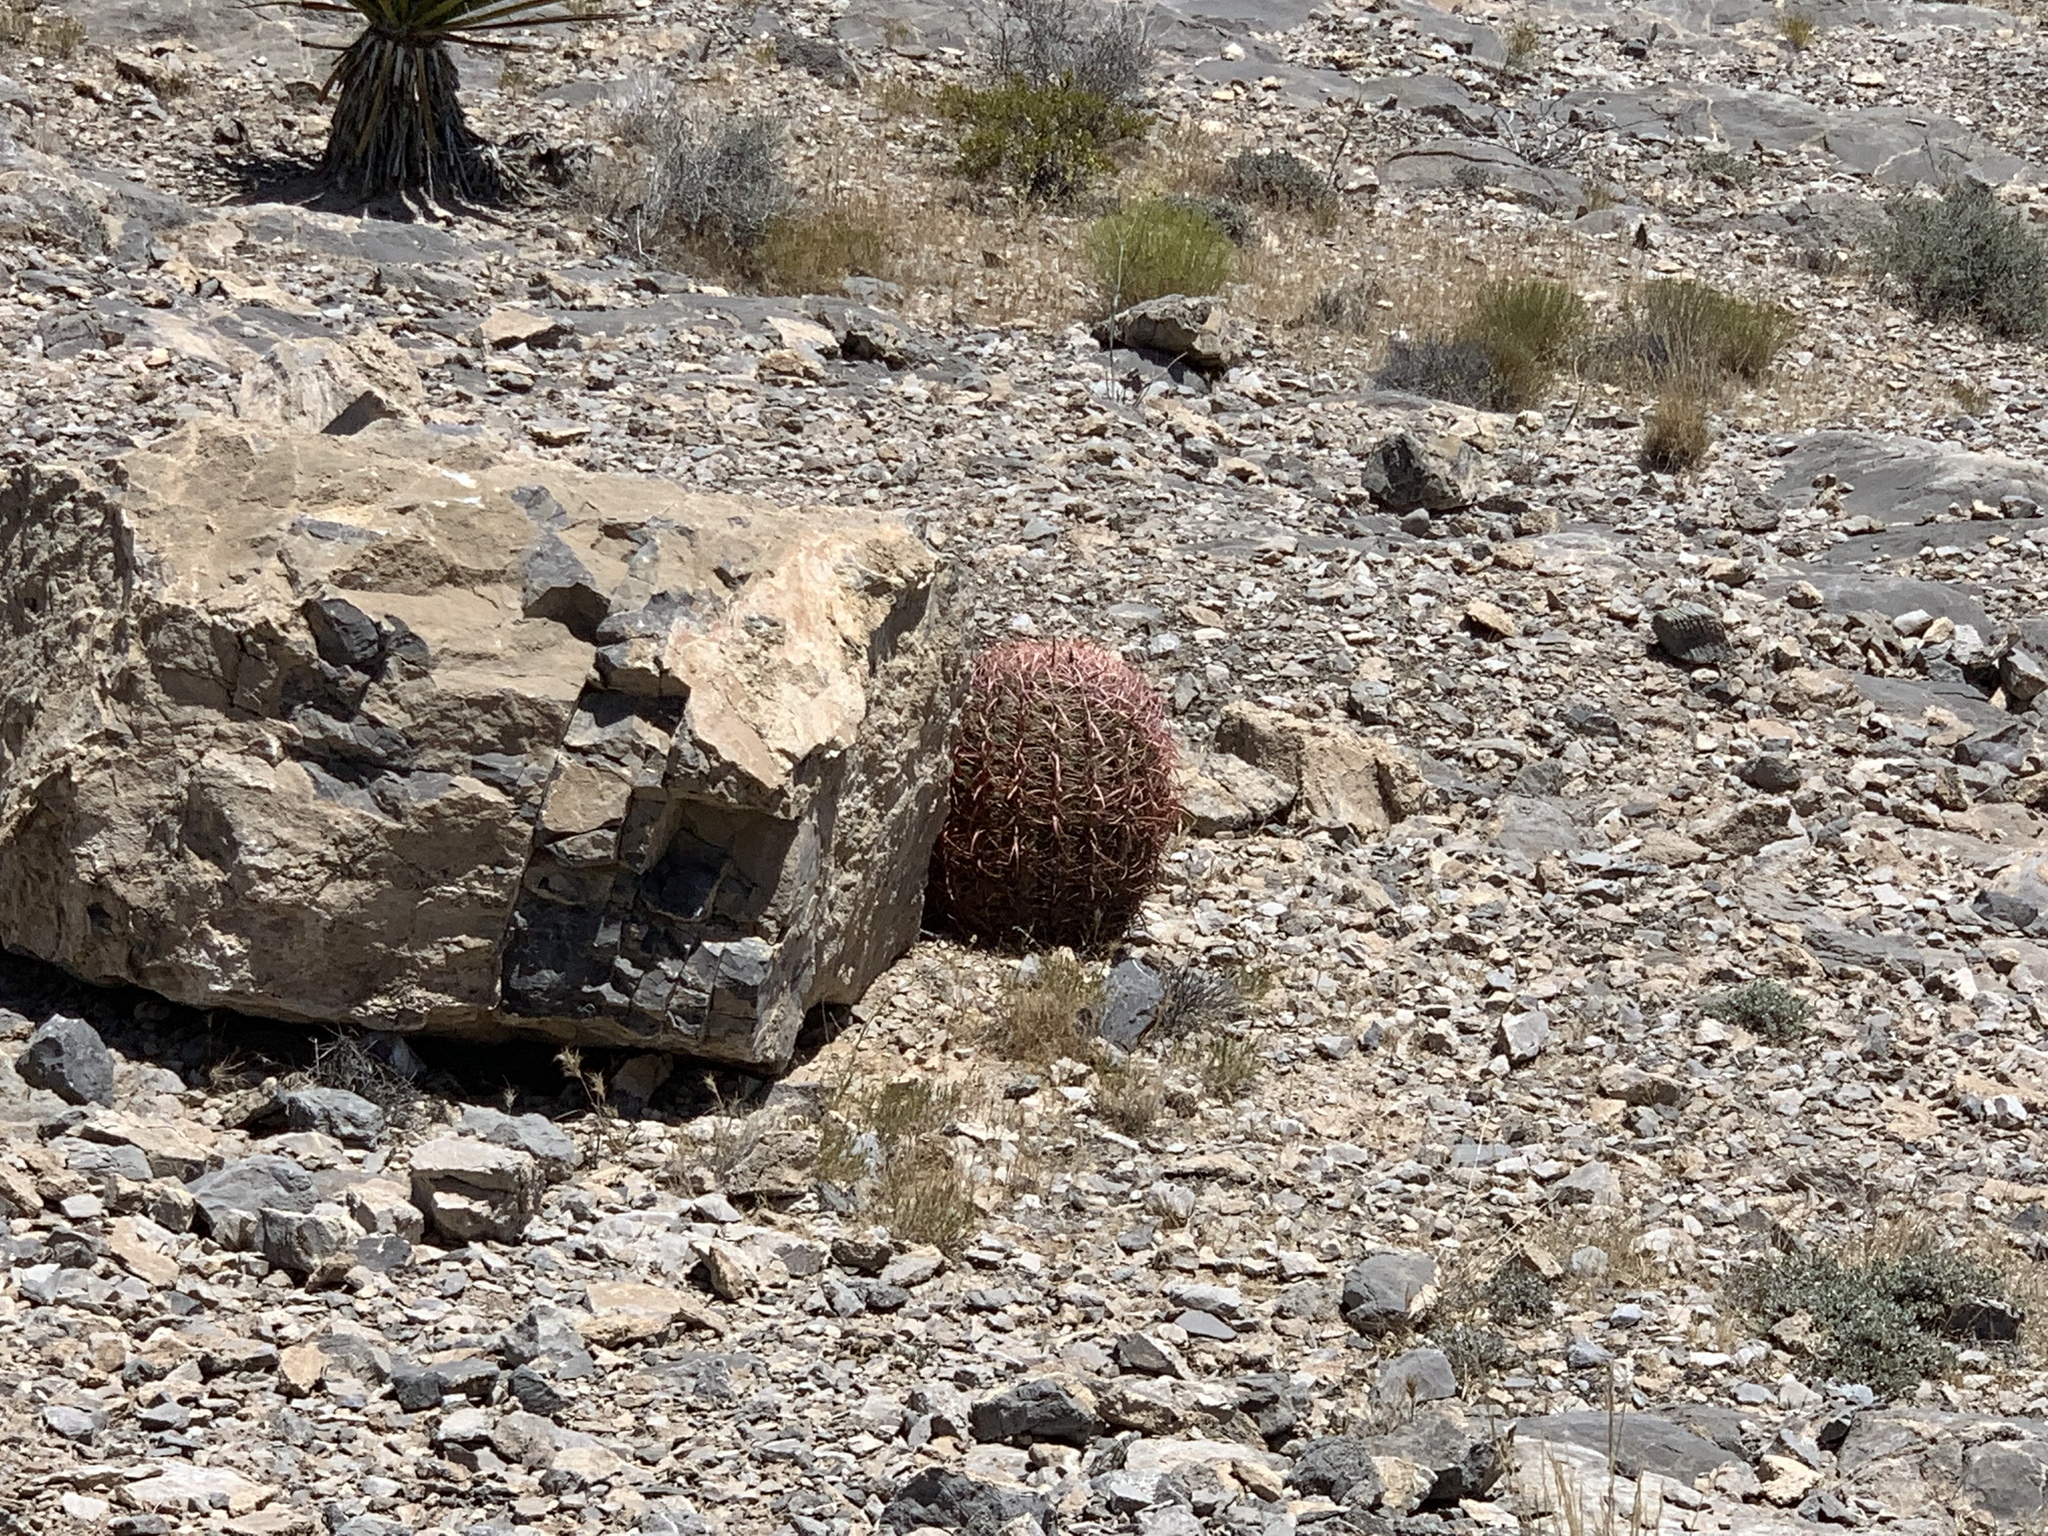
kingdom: Plantae
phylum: Tracheophyta
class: Magnoliopsida
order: Caryophyllales
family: Cactaceae
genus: Ferocactus
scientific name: Ferocactus cylindraceus
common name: California barrel cactus
